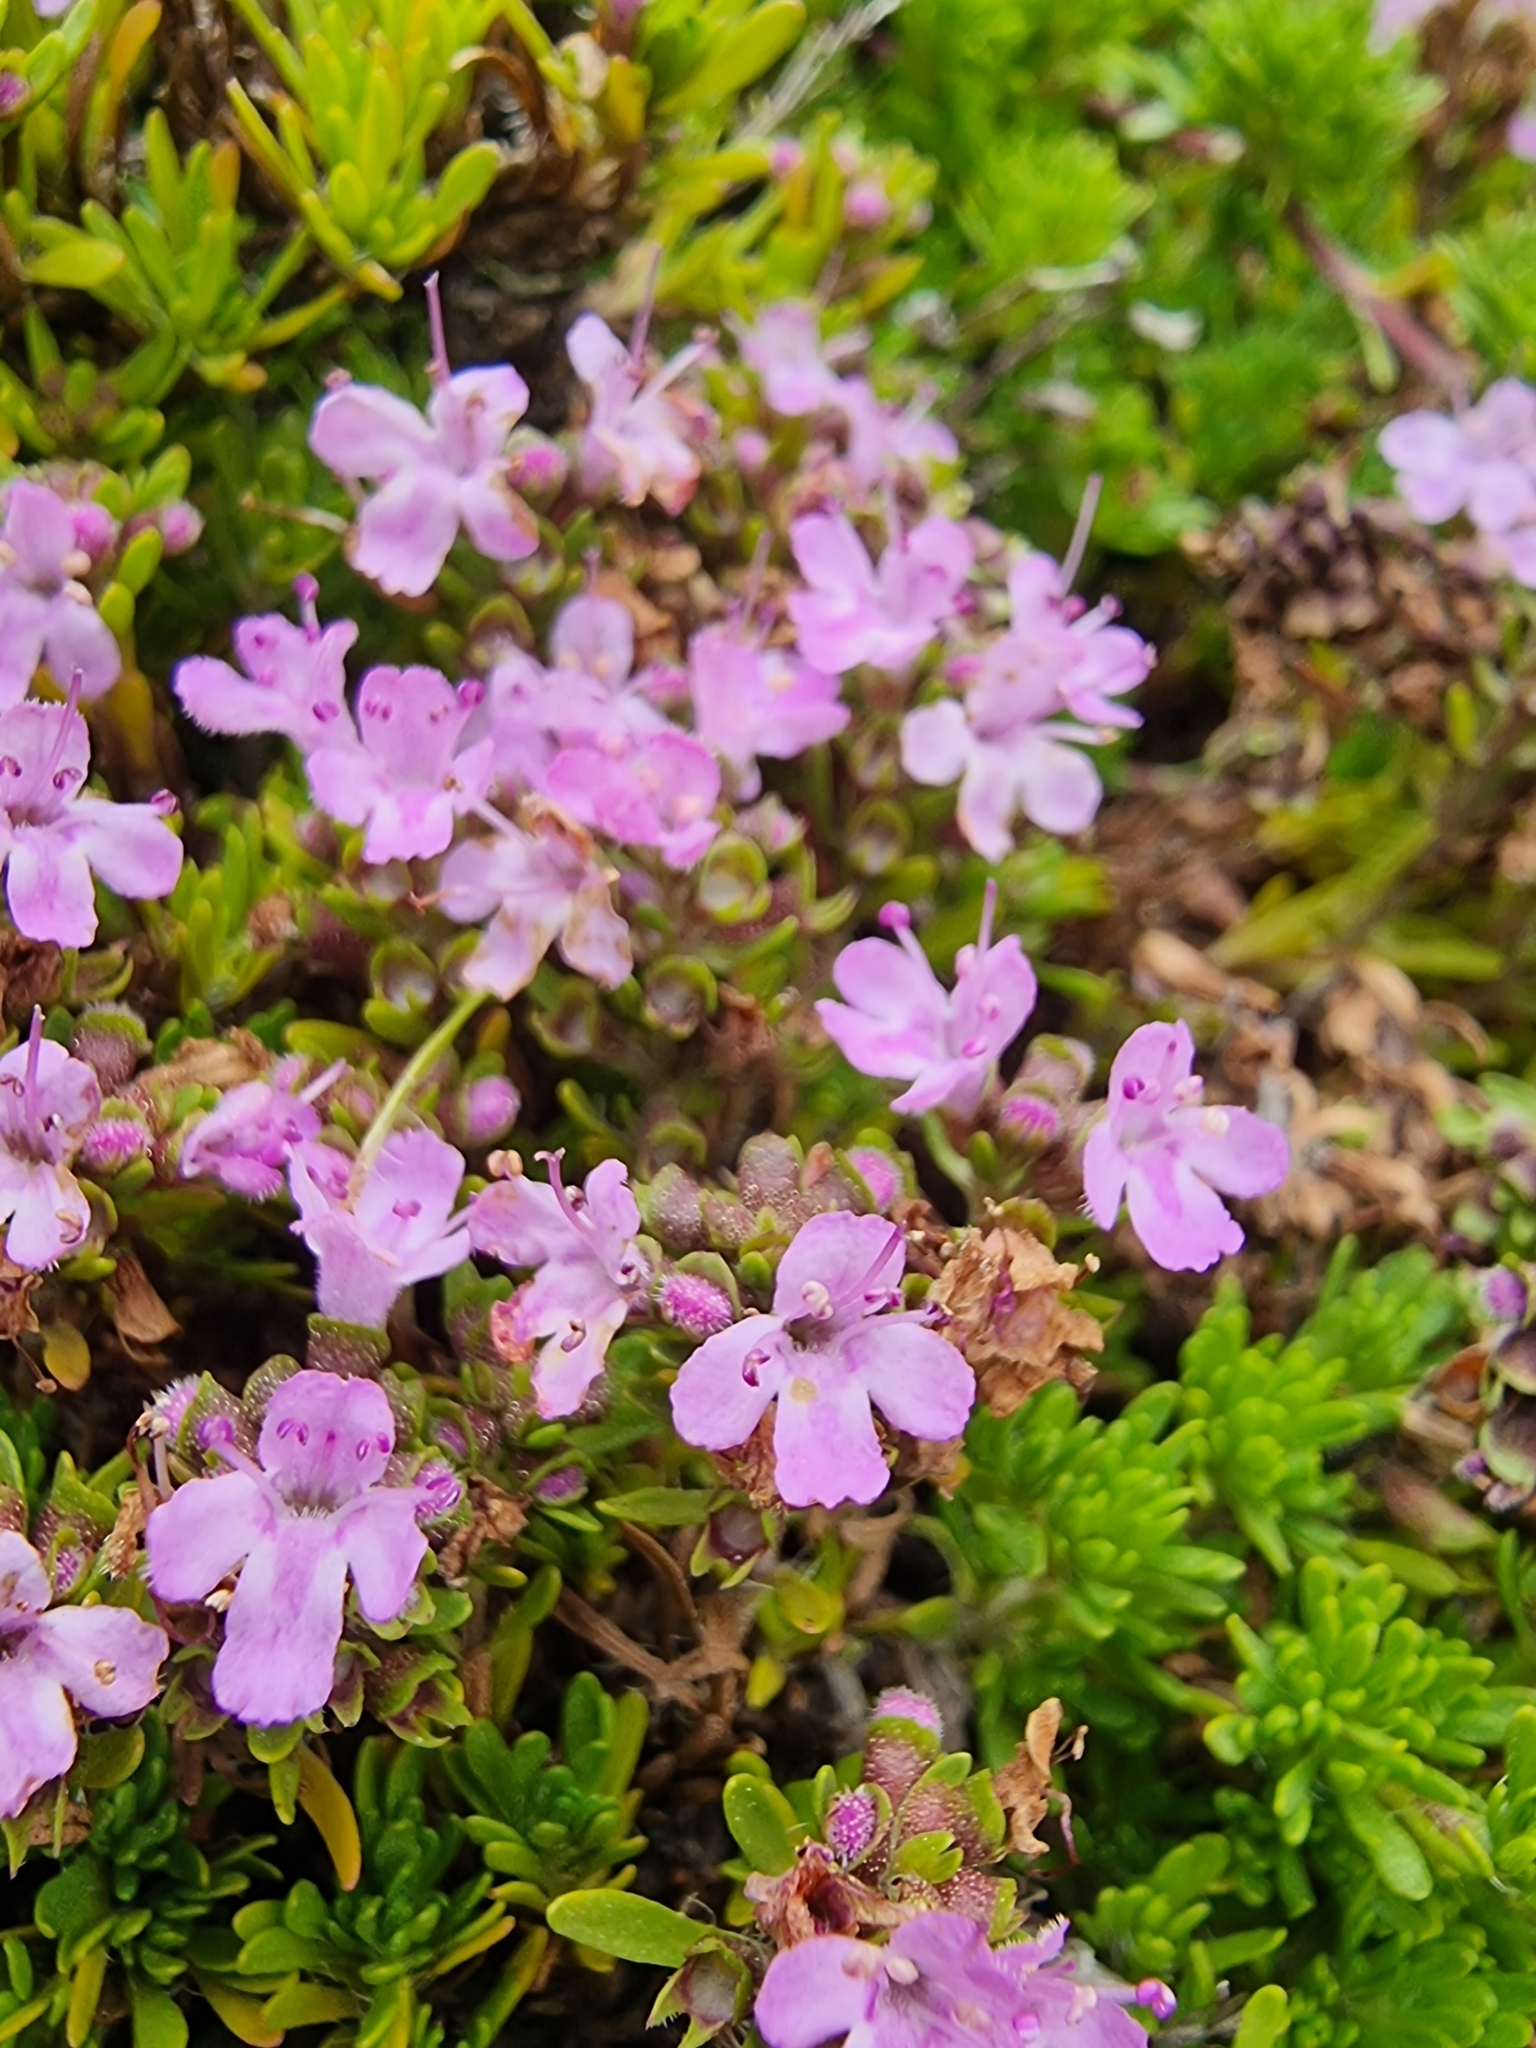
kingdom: Plantae
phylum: Tracheophyta
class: Magnoliopsida
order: Lamiales
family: Lamiaceae
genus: Thymus
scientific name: Thymus caespititius
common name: Azores thyme
